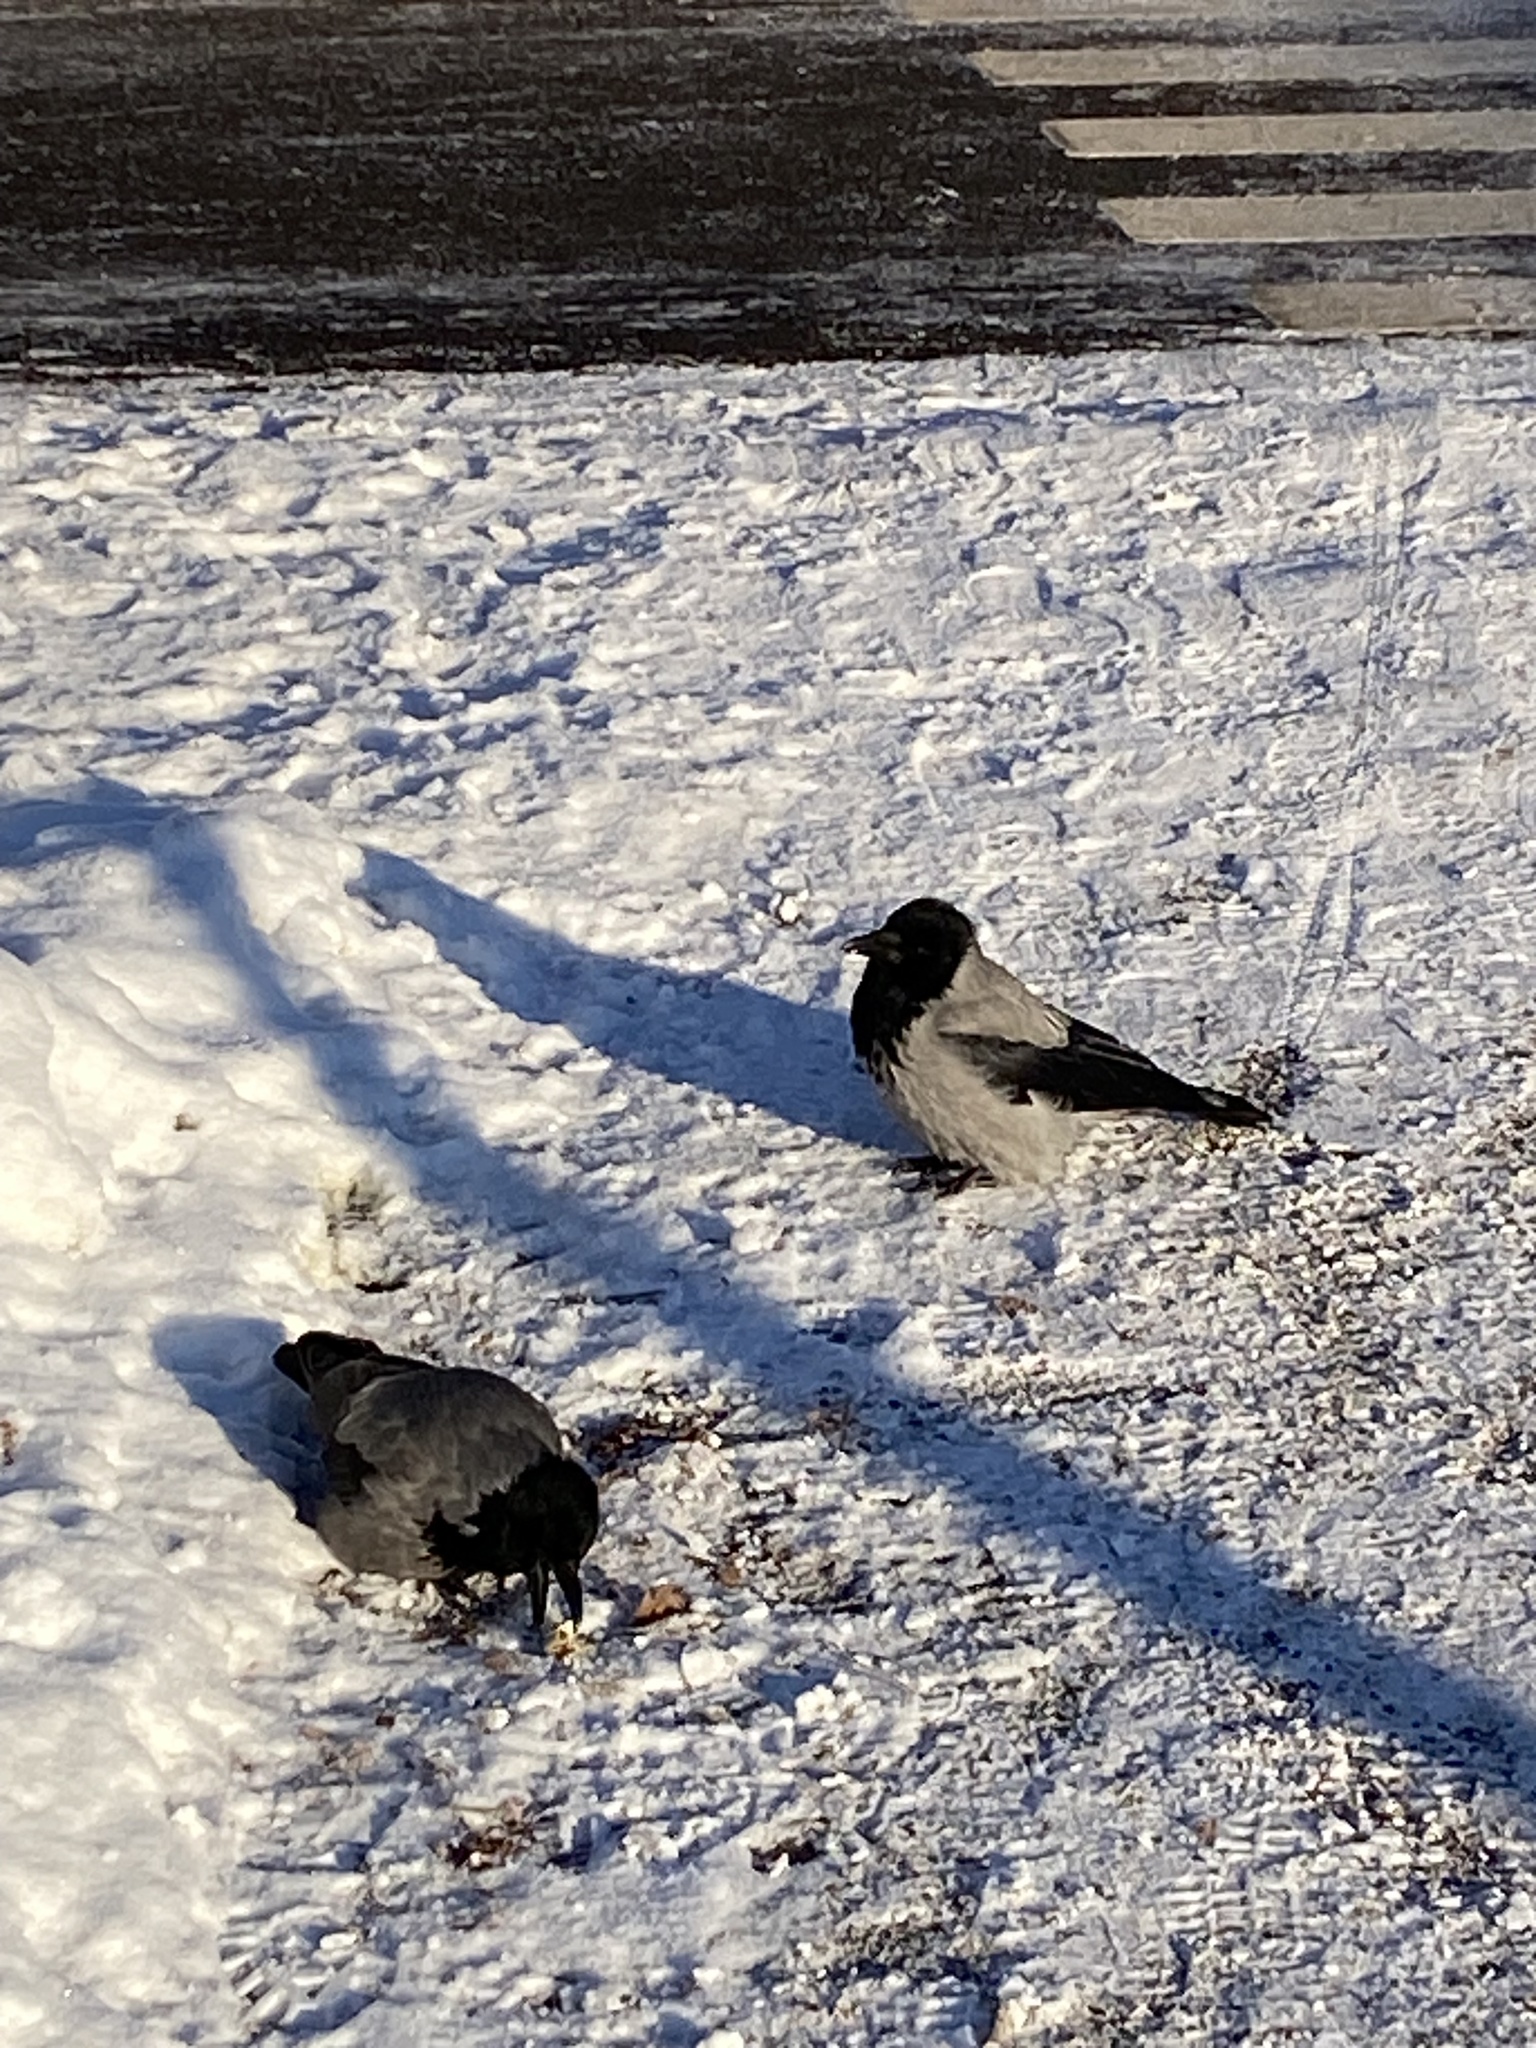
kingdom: Animalia
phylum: Chordata
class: Aves
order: Passeriformes
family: Corvidae
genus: Corvus
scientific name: Corvus cornix
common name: Hooded crow
